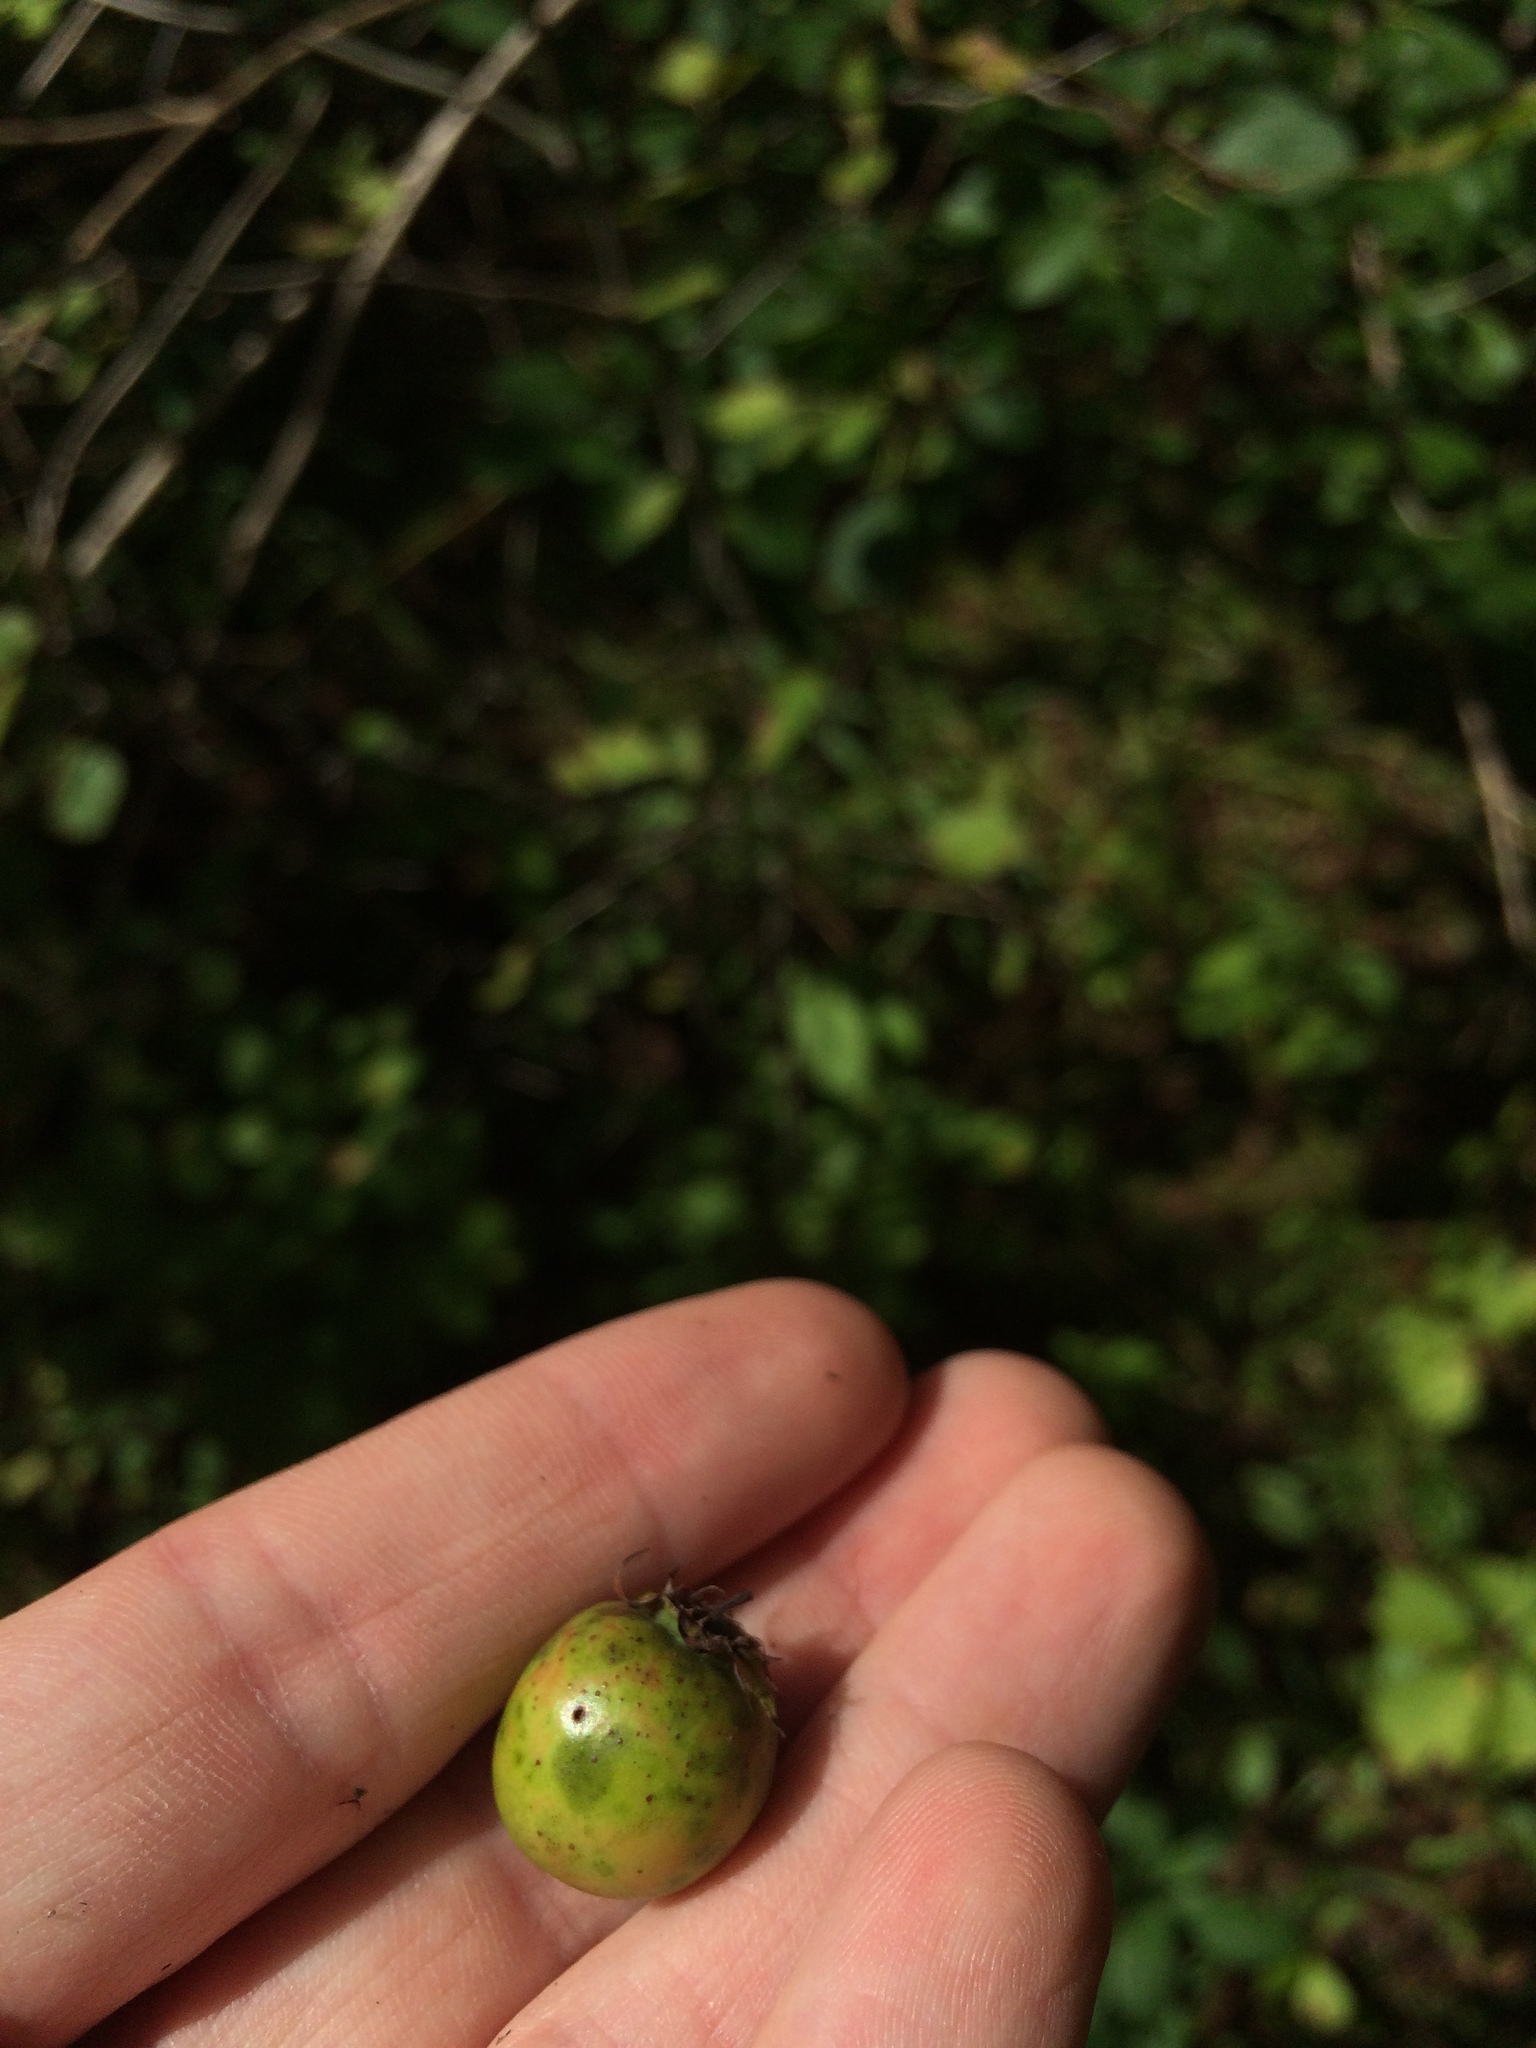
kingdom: Plantae
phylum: Tracheophyta
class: Magnoliopsida
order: Rosales
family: Rosaceae
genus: Crataegus
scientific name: Crataegus suborbiculata
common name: Caughnawaga hawthorn
